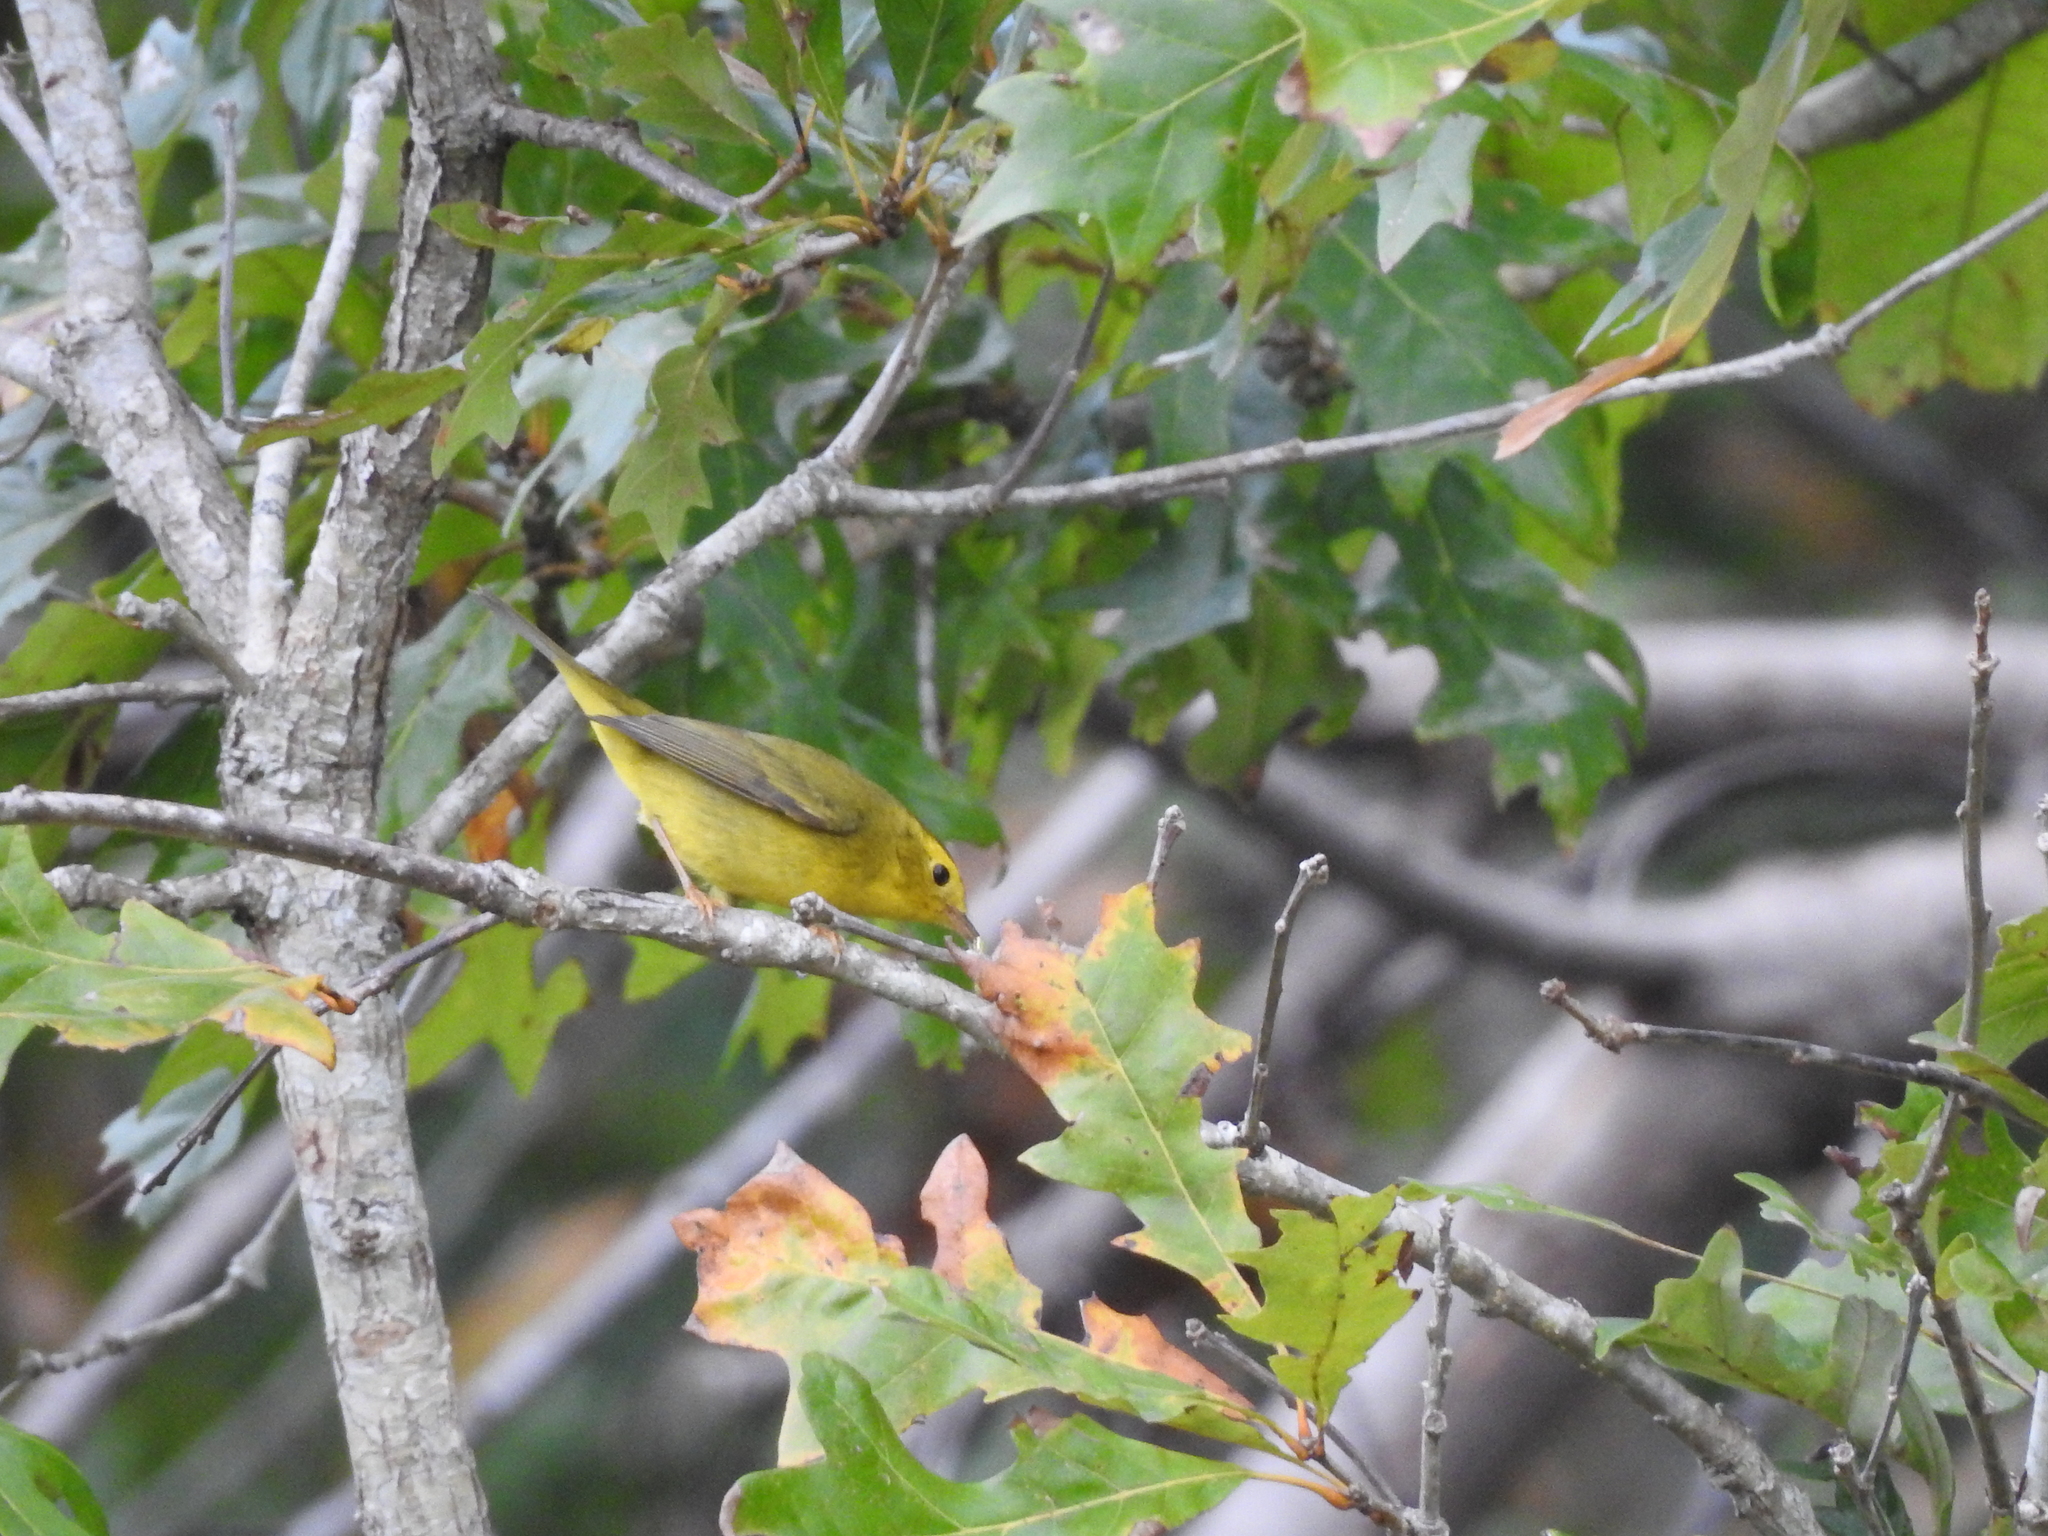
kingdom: Animalia
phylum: Chordata
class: Aves
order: Passeriformes
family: Parulidae
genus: Cardellina
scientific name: Cardellina pusilla
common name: Wilson's warbler
